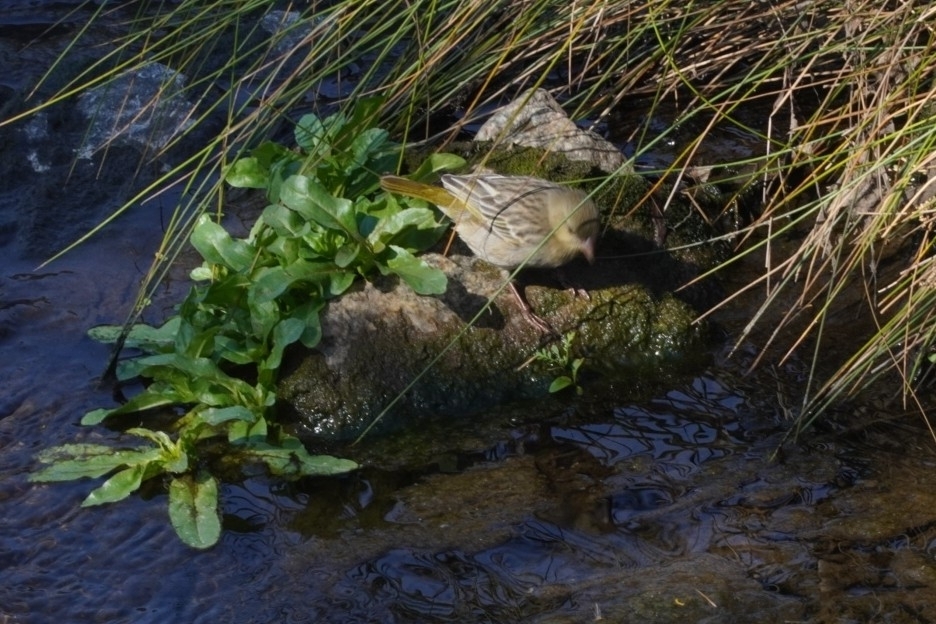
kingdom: Animalia
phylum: Chordata
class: Aves
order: Passeriformes
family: Ploceidae
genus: Ploceus
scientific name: Ploceus velatus
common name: Southern masked weaver
